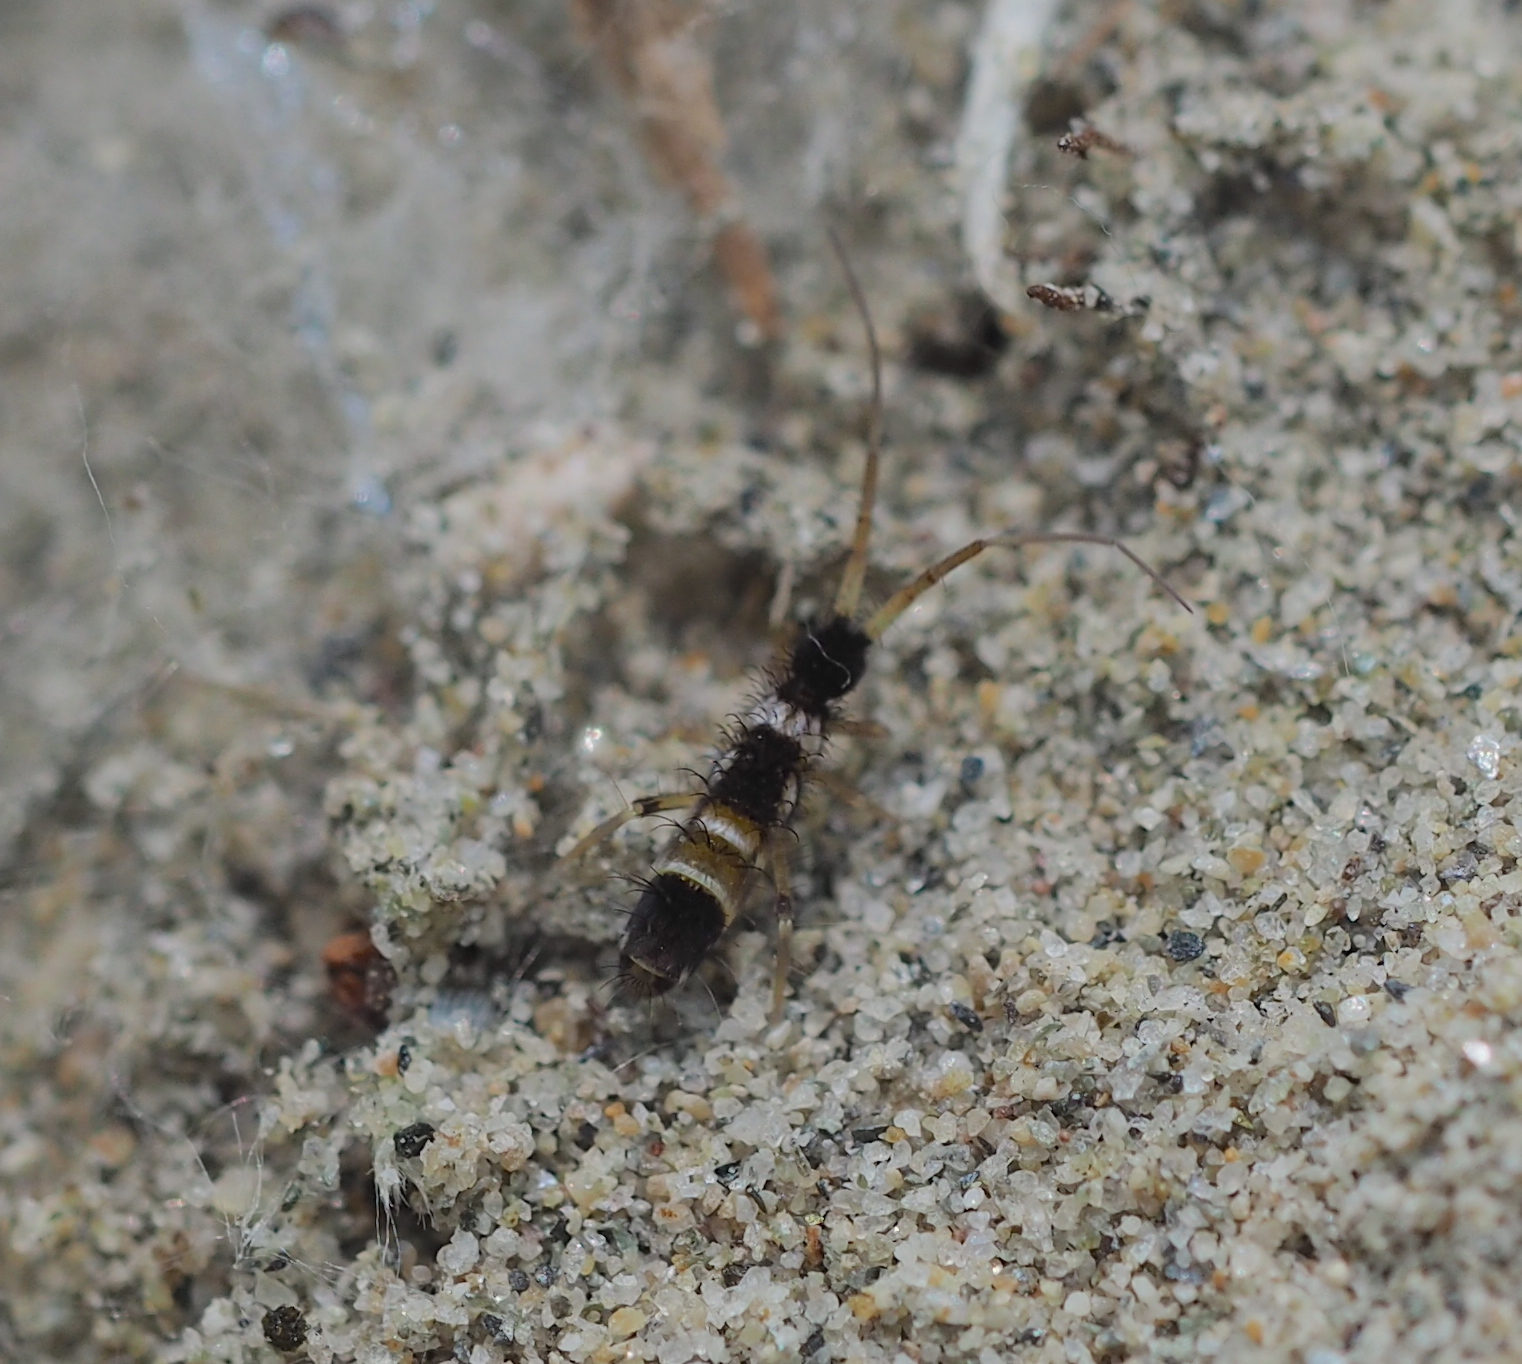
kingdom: Animalia
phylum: Arthropoda
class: Collembola
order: Entomobryomorpha
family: Orchesellidae
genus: Orchesella
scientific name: Orchesella pannonica
